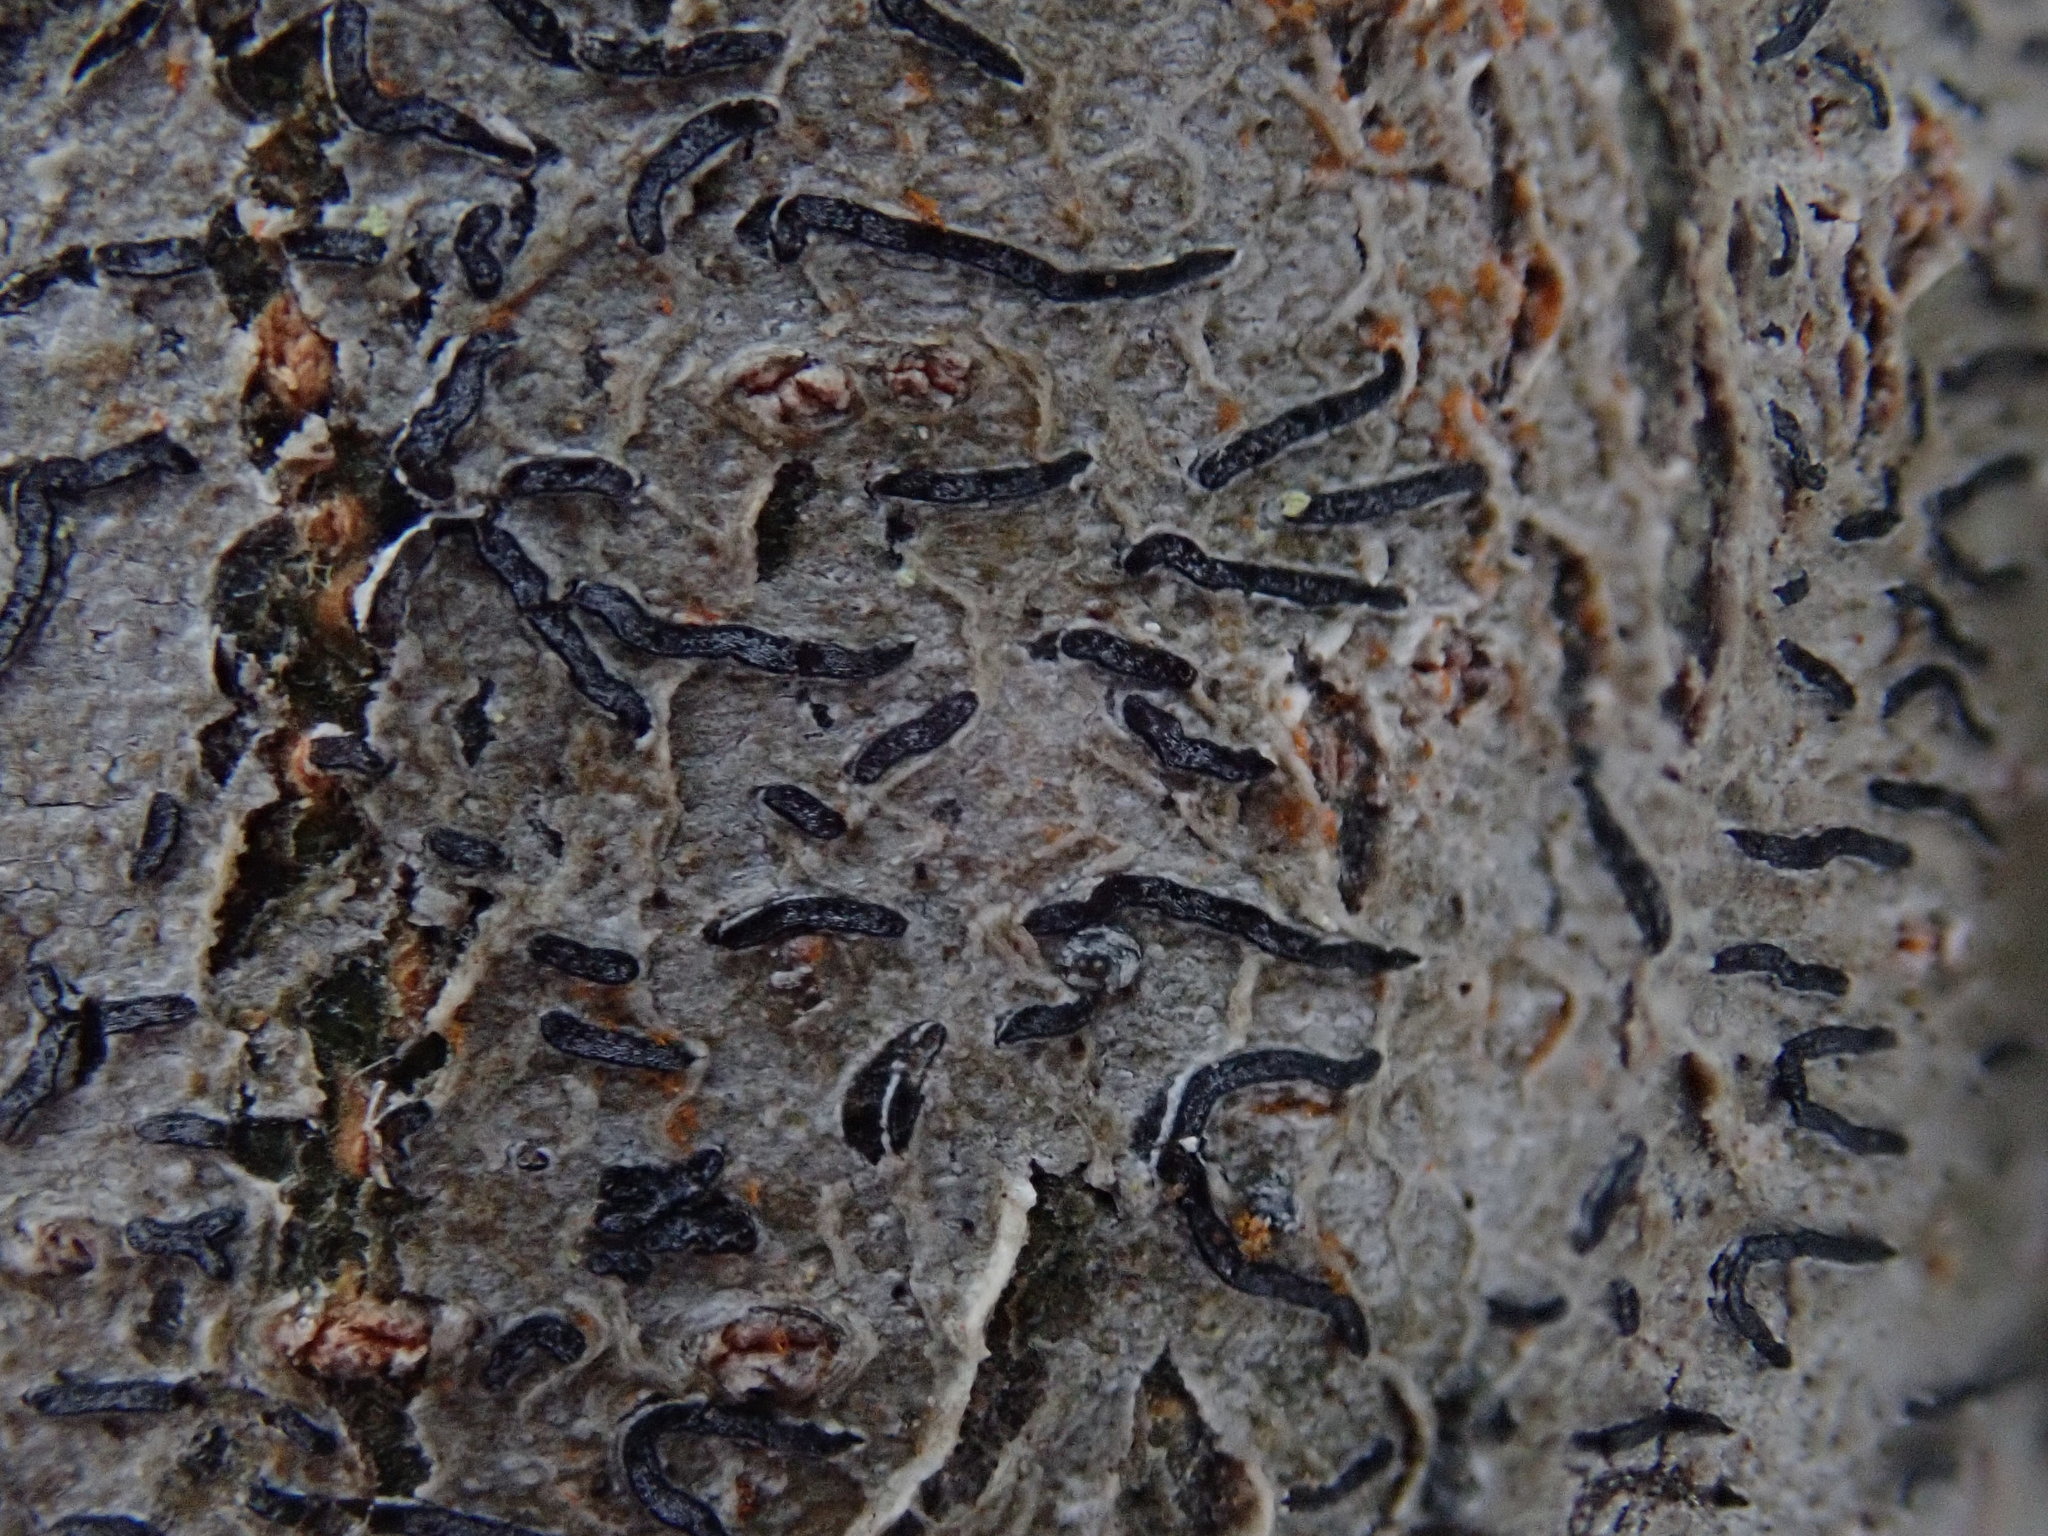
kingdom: Fungi
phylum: Ascomycota
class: Lecanoromycetes
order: Ostropales
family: Graphidaceae
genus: Graphis
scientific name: Graphis scripta
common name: Script lichen
